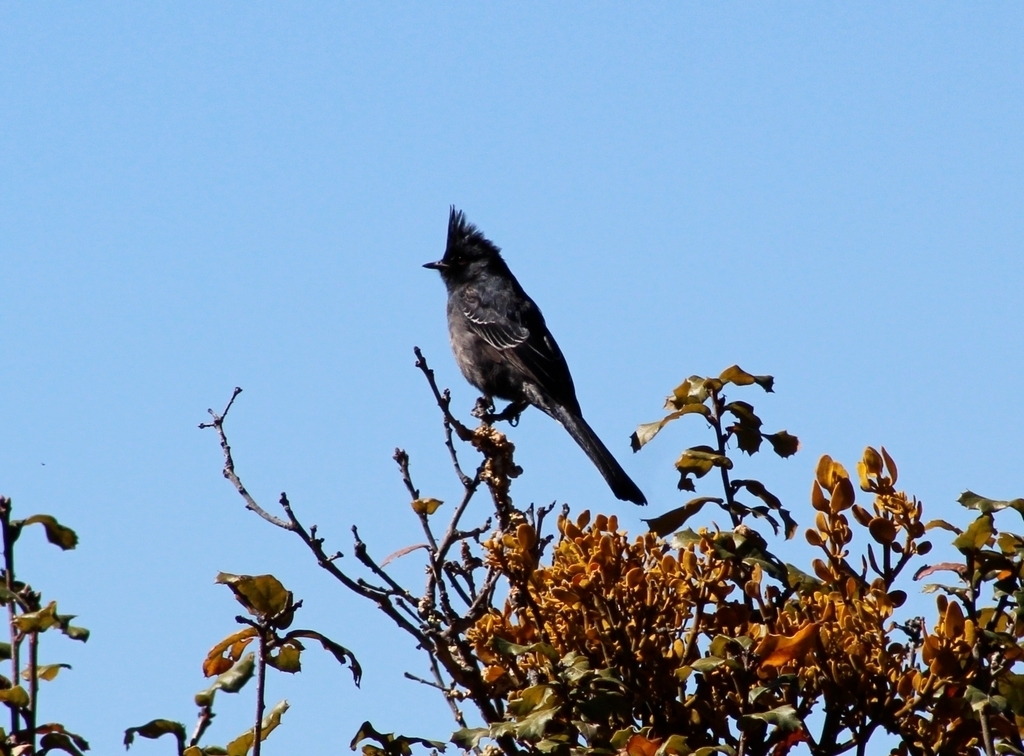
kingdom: Animalia
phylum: Chordata
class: Aves
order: Passeriformes
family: Ptilogonatidae
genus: Phainopepla
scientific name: Phainopepla nitens
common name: Phainopepla
